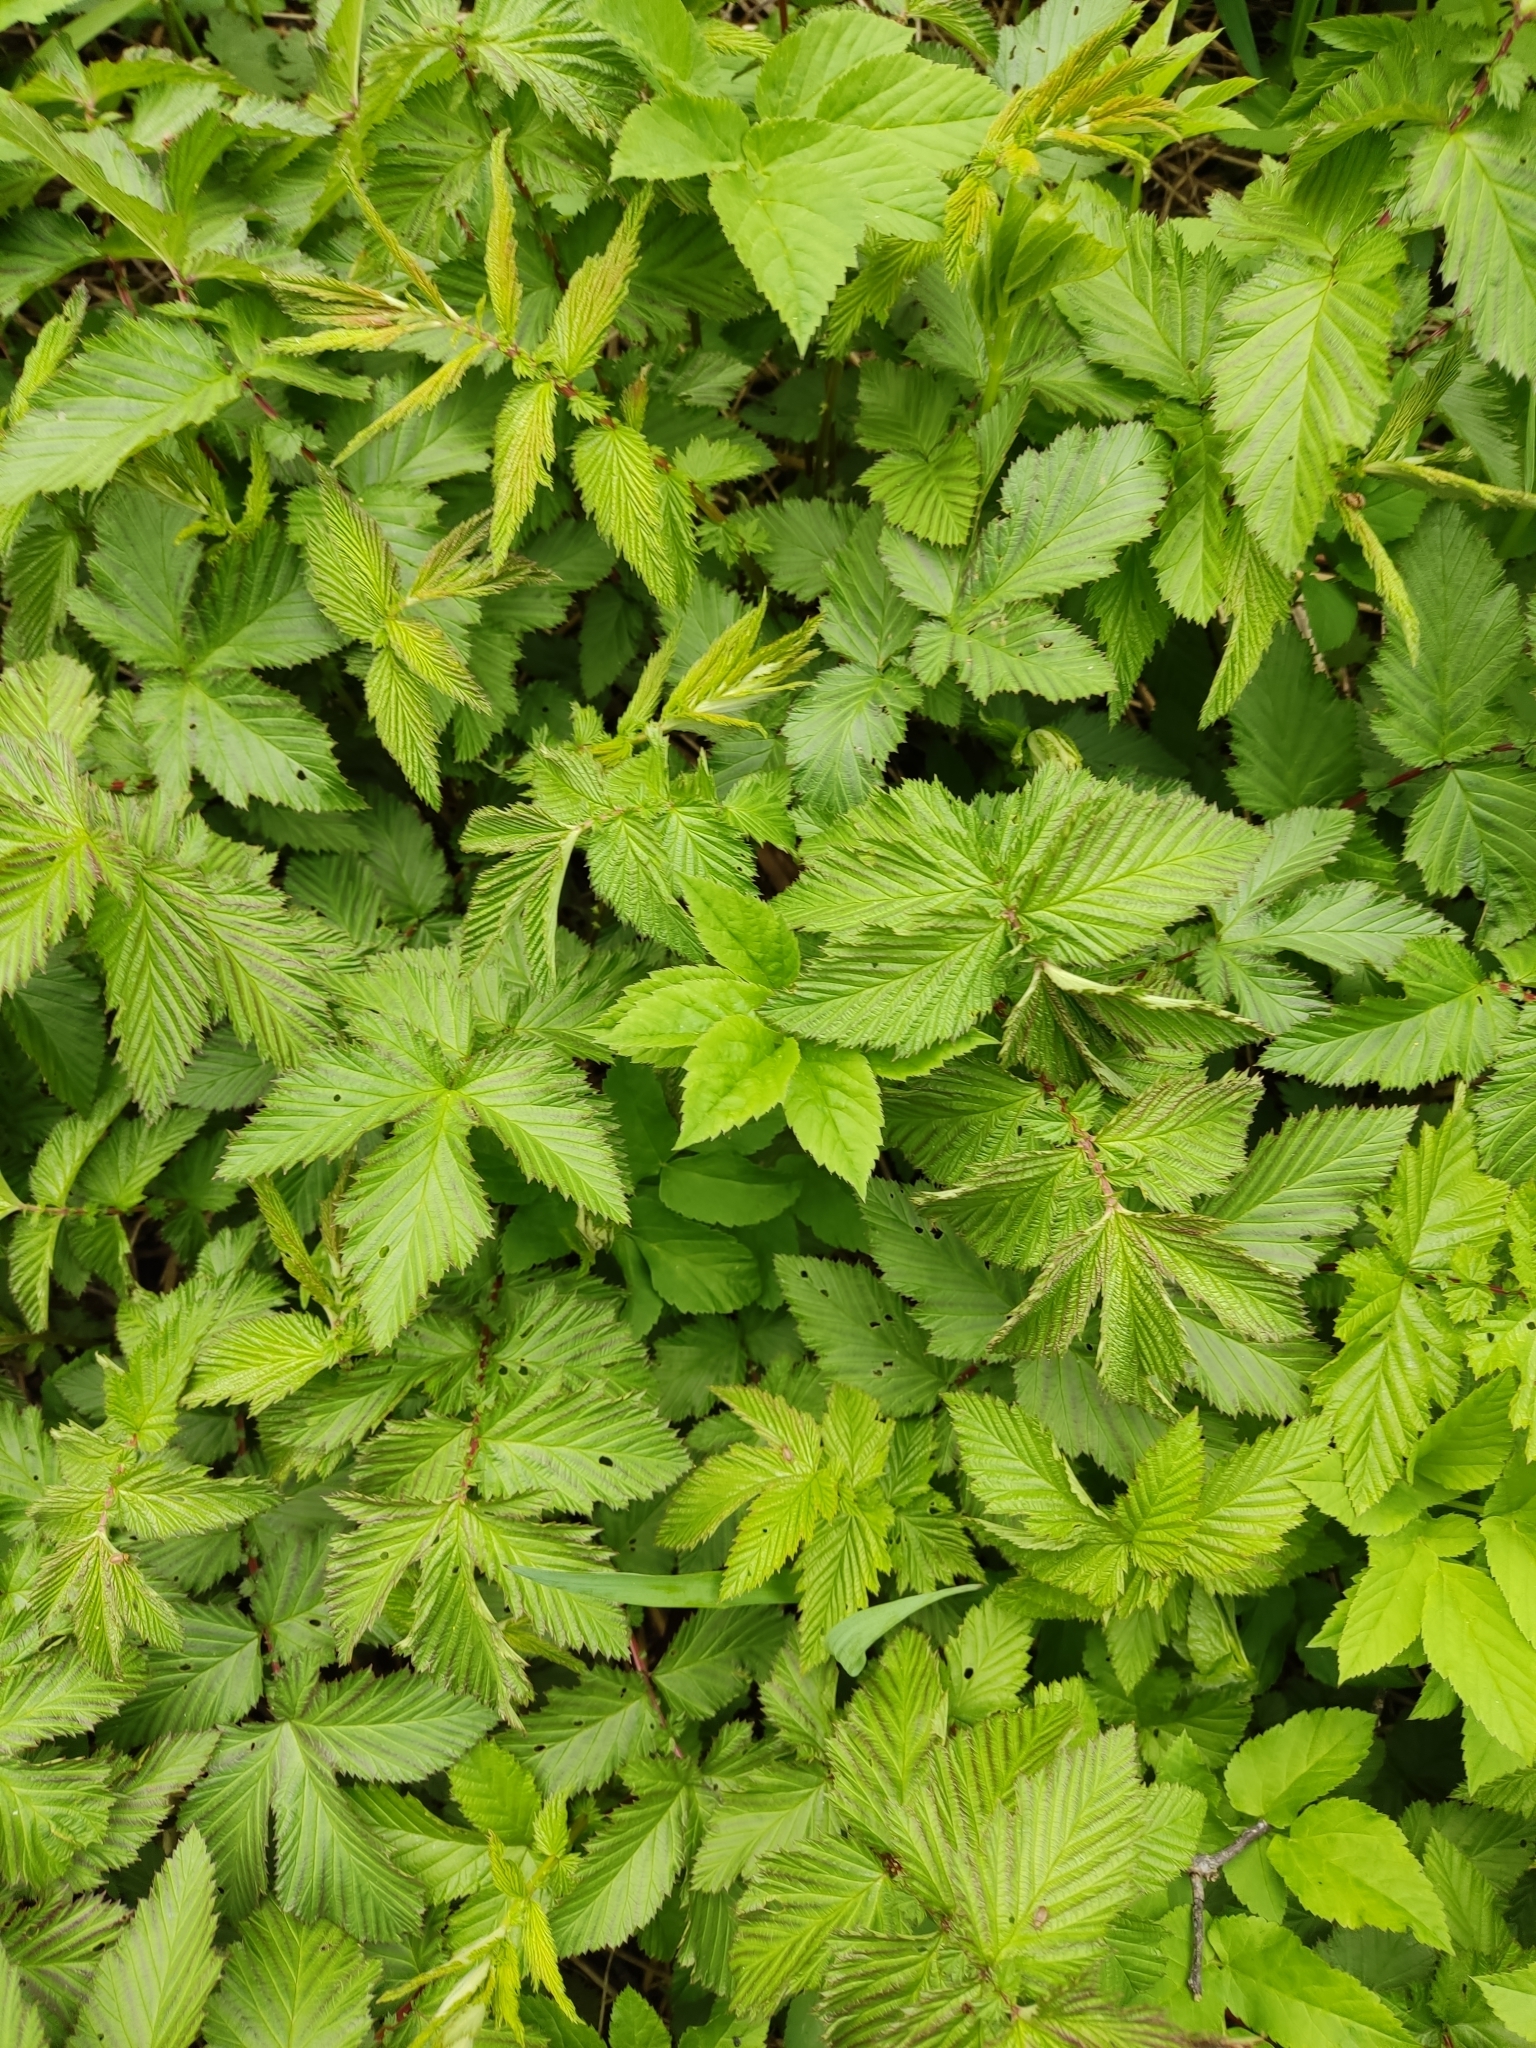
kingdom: Plantae
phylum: Tracheophyta
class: Magnoliopsida
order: Rosales
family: Rosaceae
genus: Filipendula
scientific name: Filipendula ulmaria
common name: Meadowsweet
